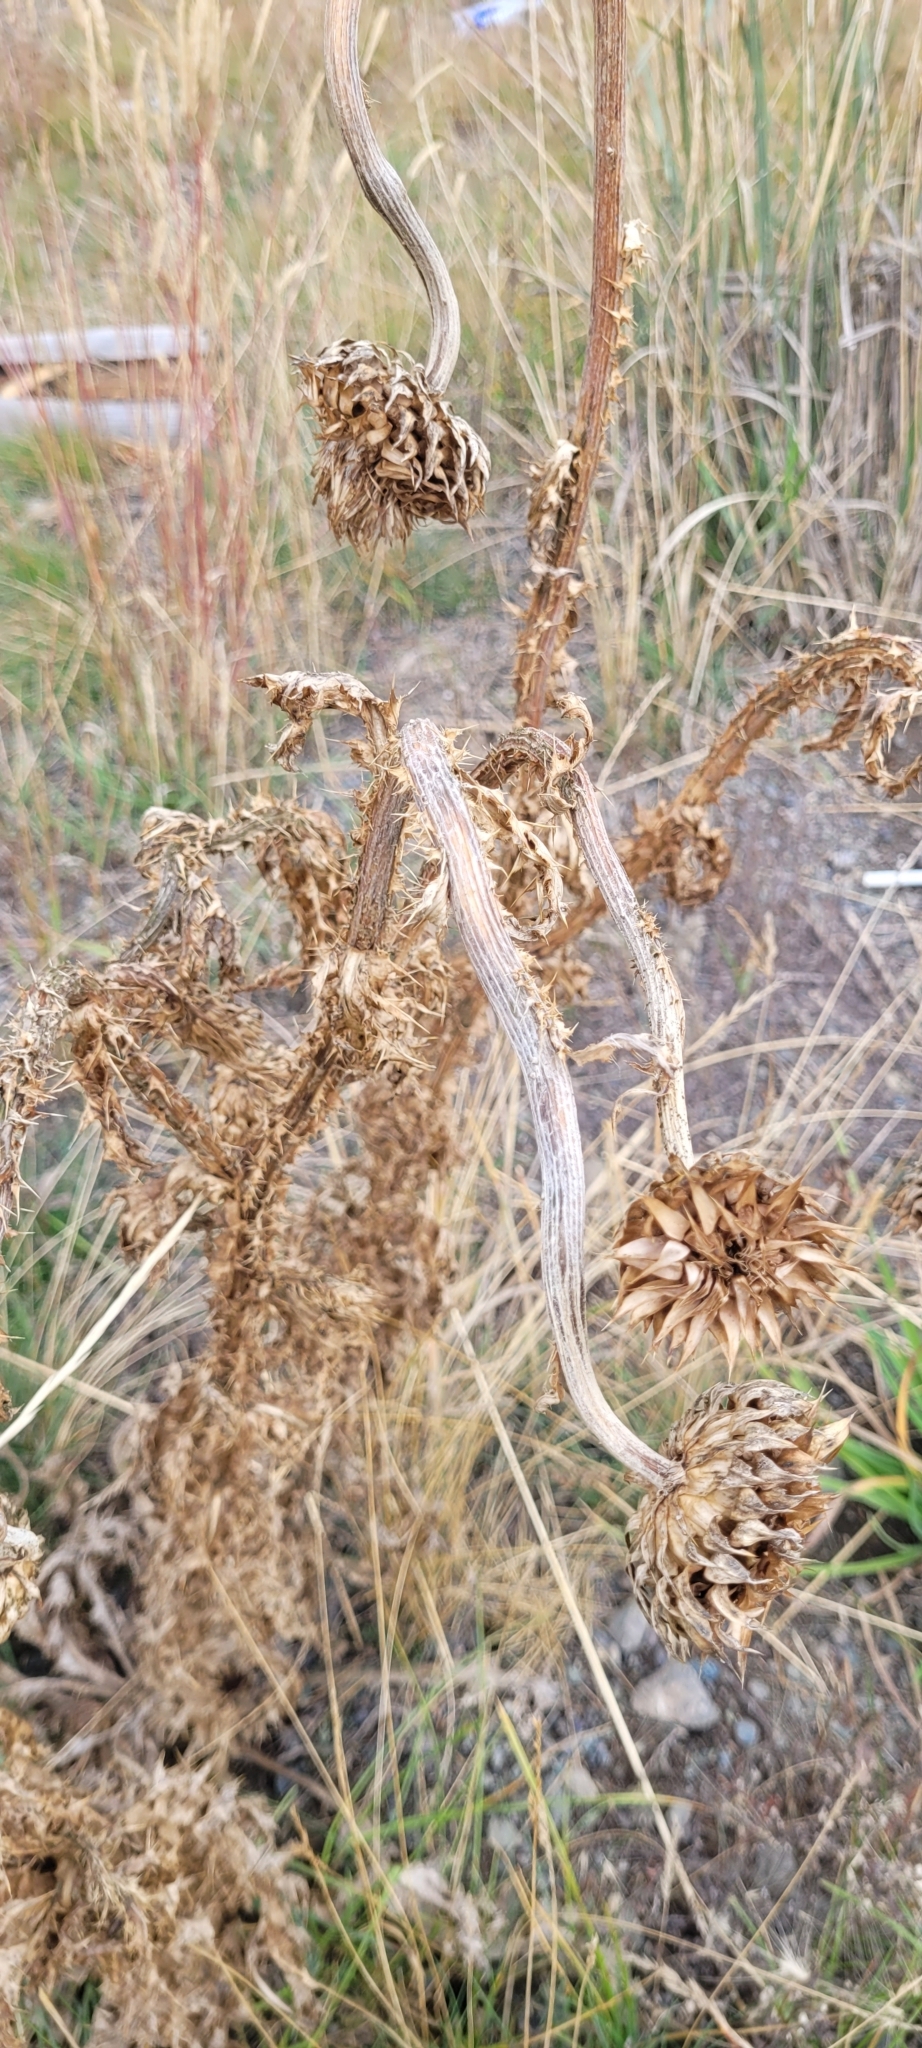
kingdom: Plantae
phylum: Tracheophyta
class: Magnoliopsida
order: Asterales
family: Asteraceae
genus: Carduus
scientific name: Carduus nutans
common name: Musk thistle
